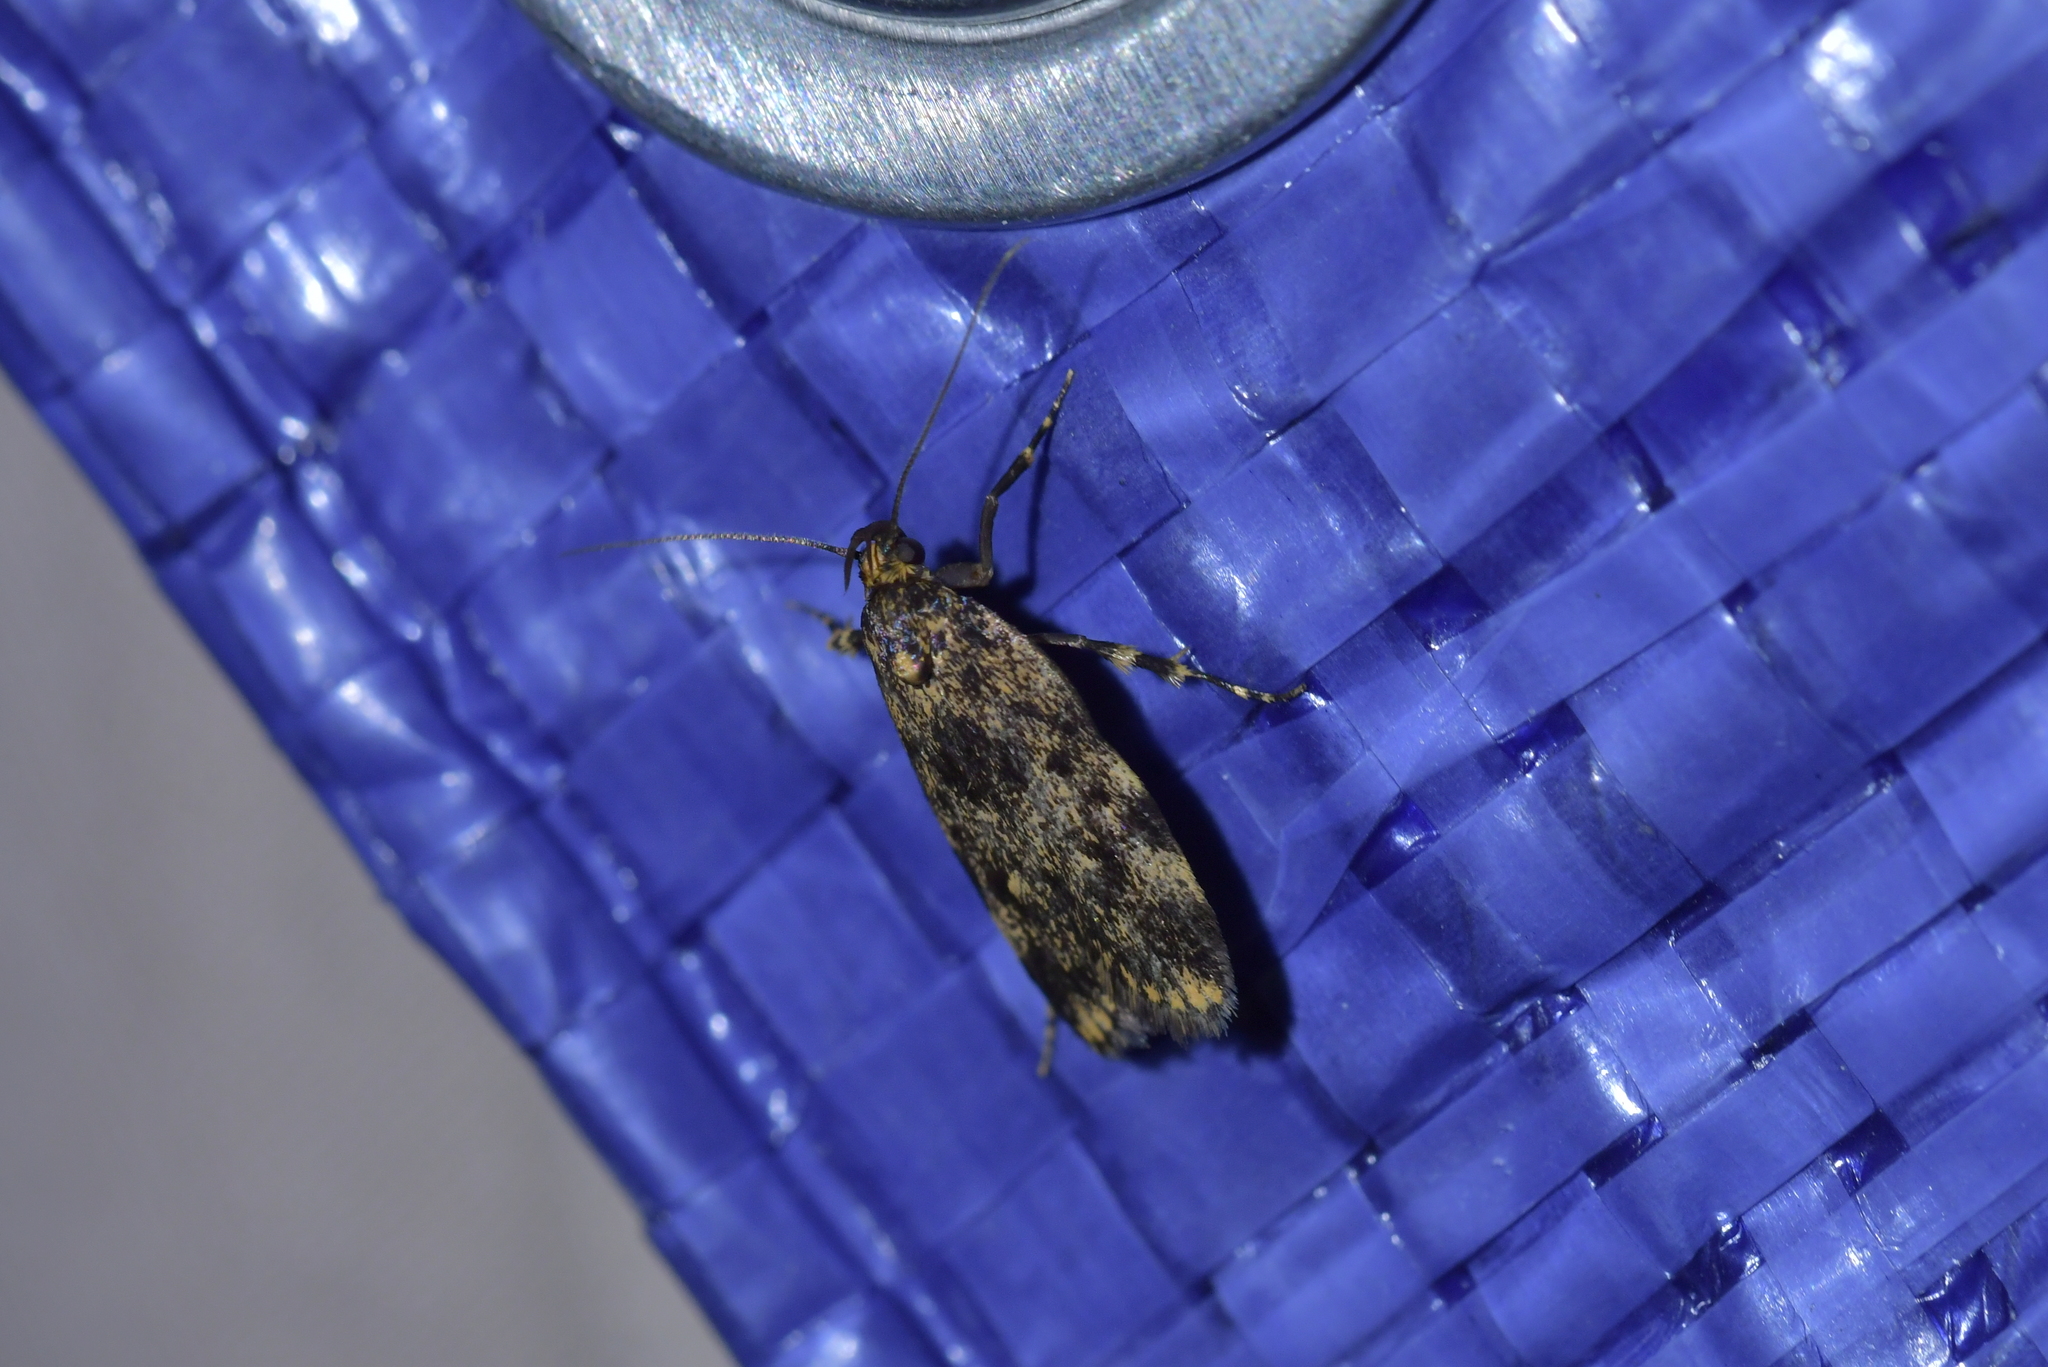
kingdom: Animalia
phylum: Arthropoda
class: Insecta
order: Lepidoptera
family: Oecophoridae
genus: Barea
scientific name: Barea codrella
